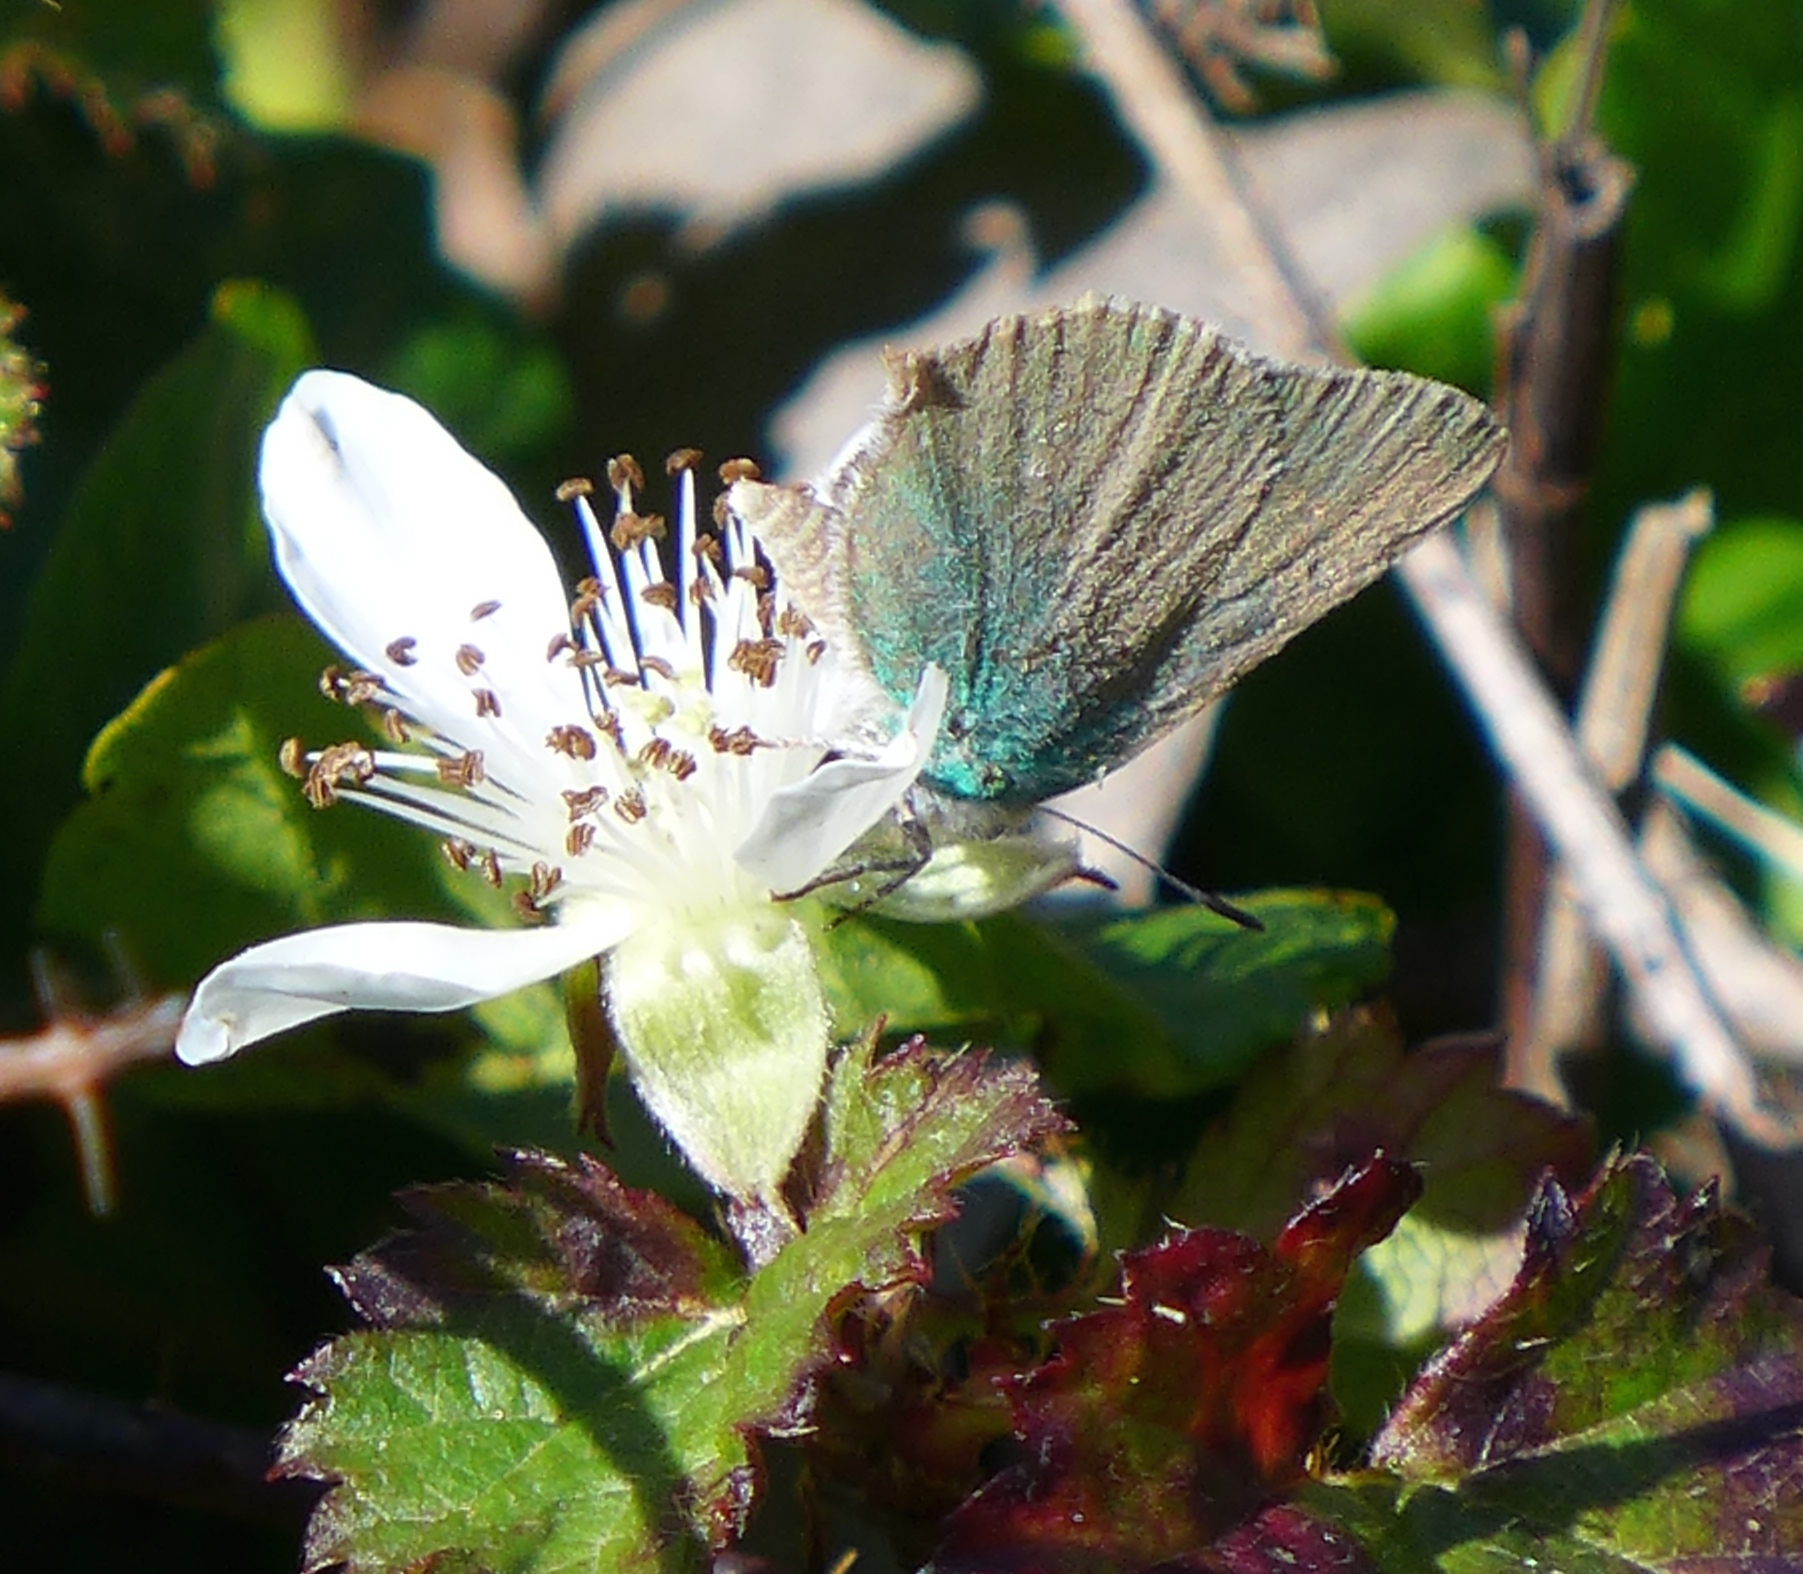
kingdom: Animalia
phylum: Arthropoda
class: Insecta
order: Lepidoptera
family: Lycaenidae
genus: Callophrys
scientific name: Callophrys viridis
